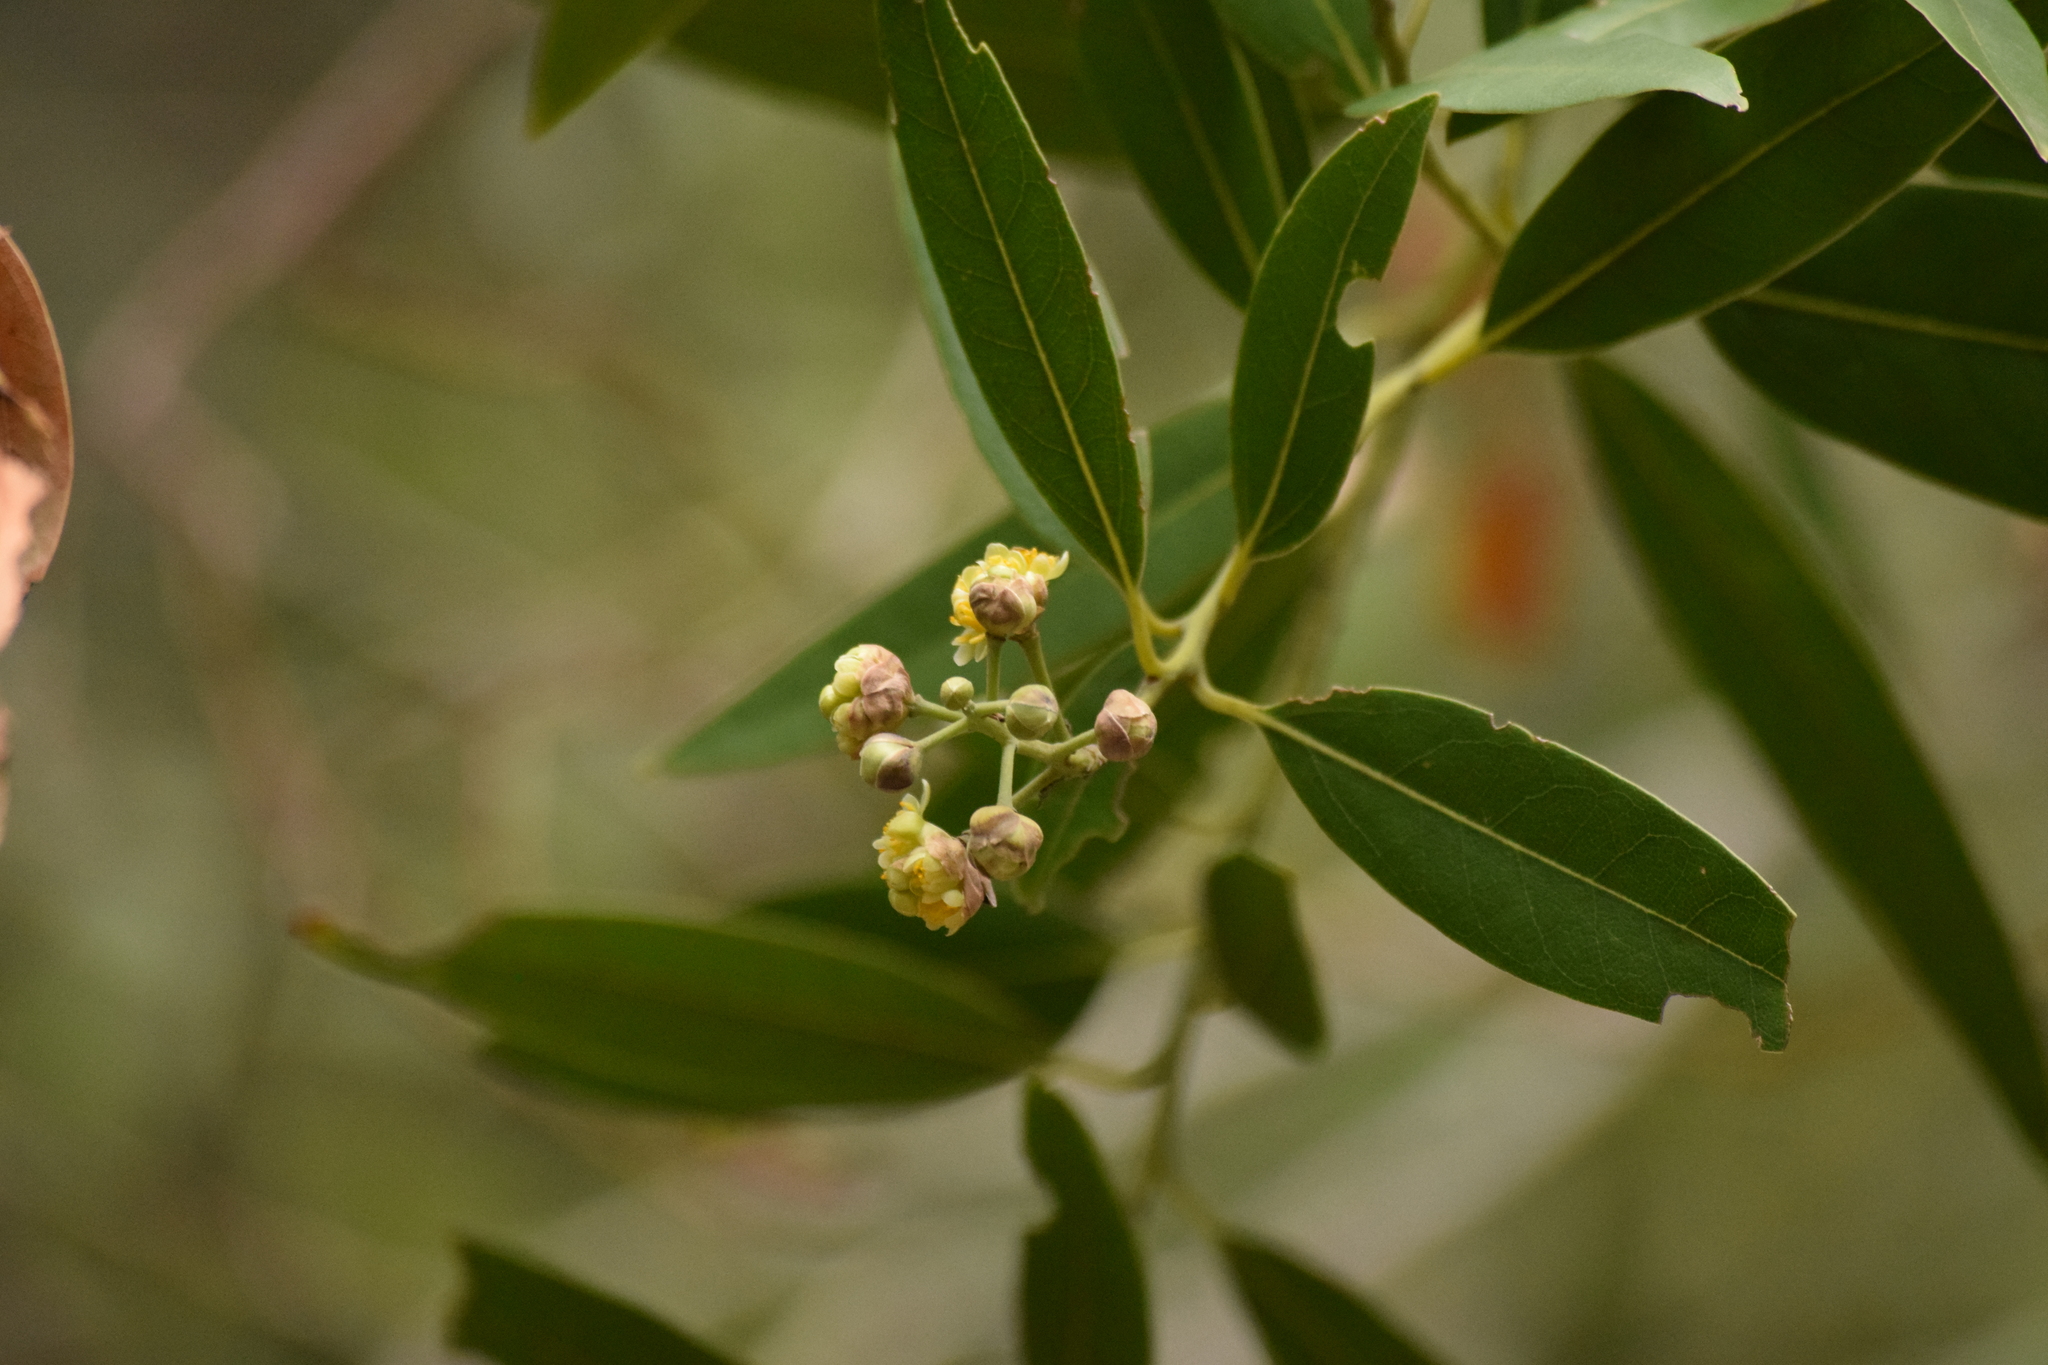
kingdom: Plantae
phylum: Tracheophyta
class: Magnoliopsida
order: Laurales
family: Lauraceae
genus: Umbellularia
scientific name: Umbellularia californica
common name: California bay
